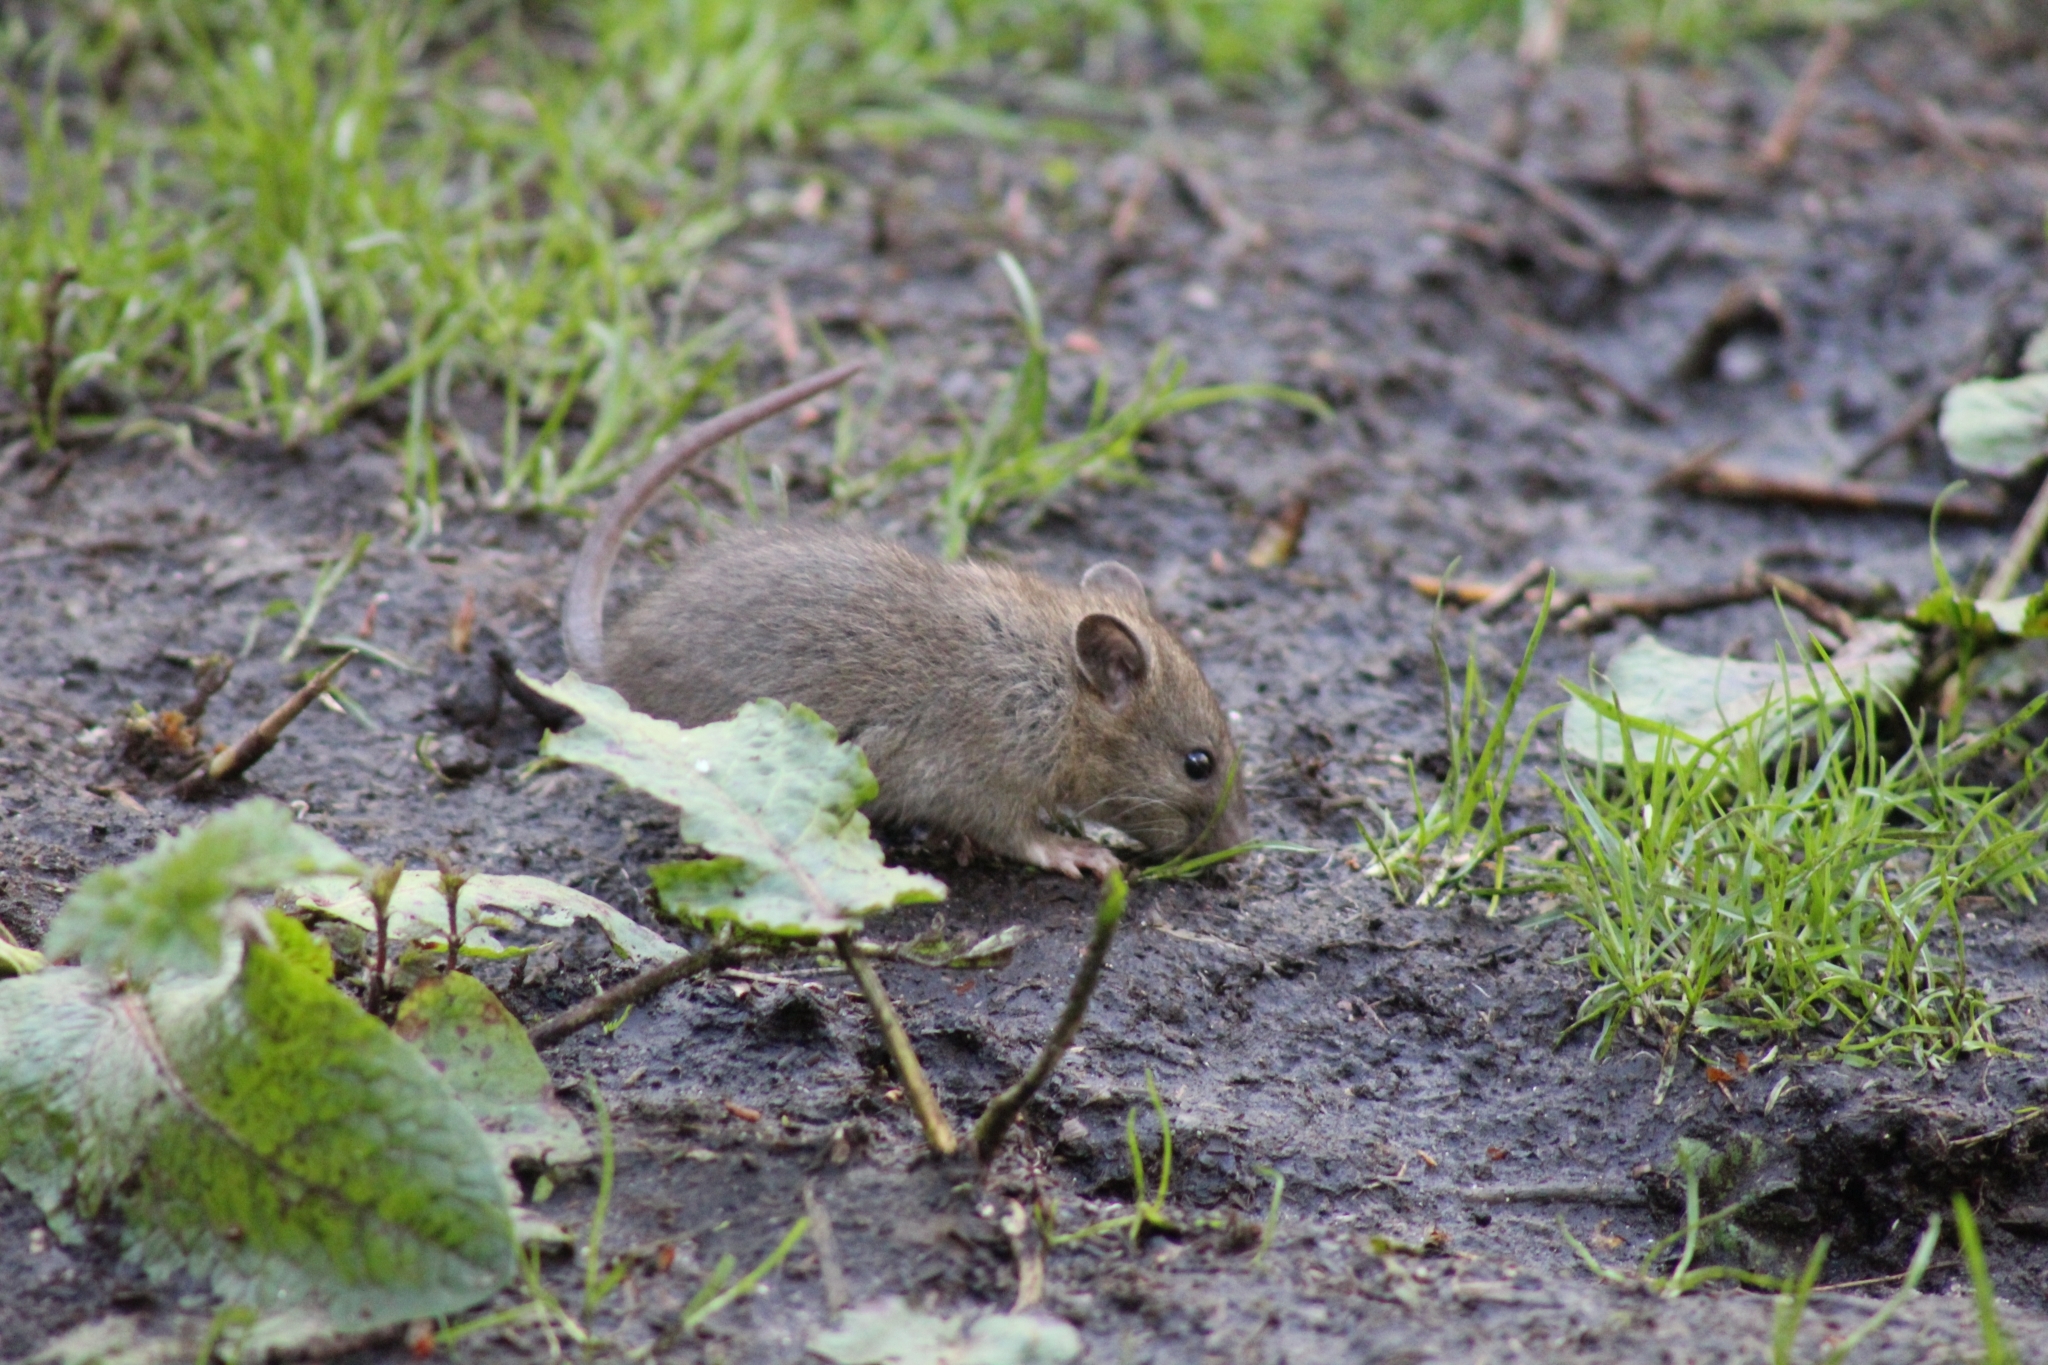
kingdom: Animalia
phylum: Chordata
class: Mammalia
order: Rodentia
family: Muridae
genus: Rattus
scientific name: Rattus norvegicus
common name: Brown rat
